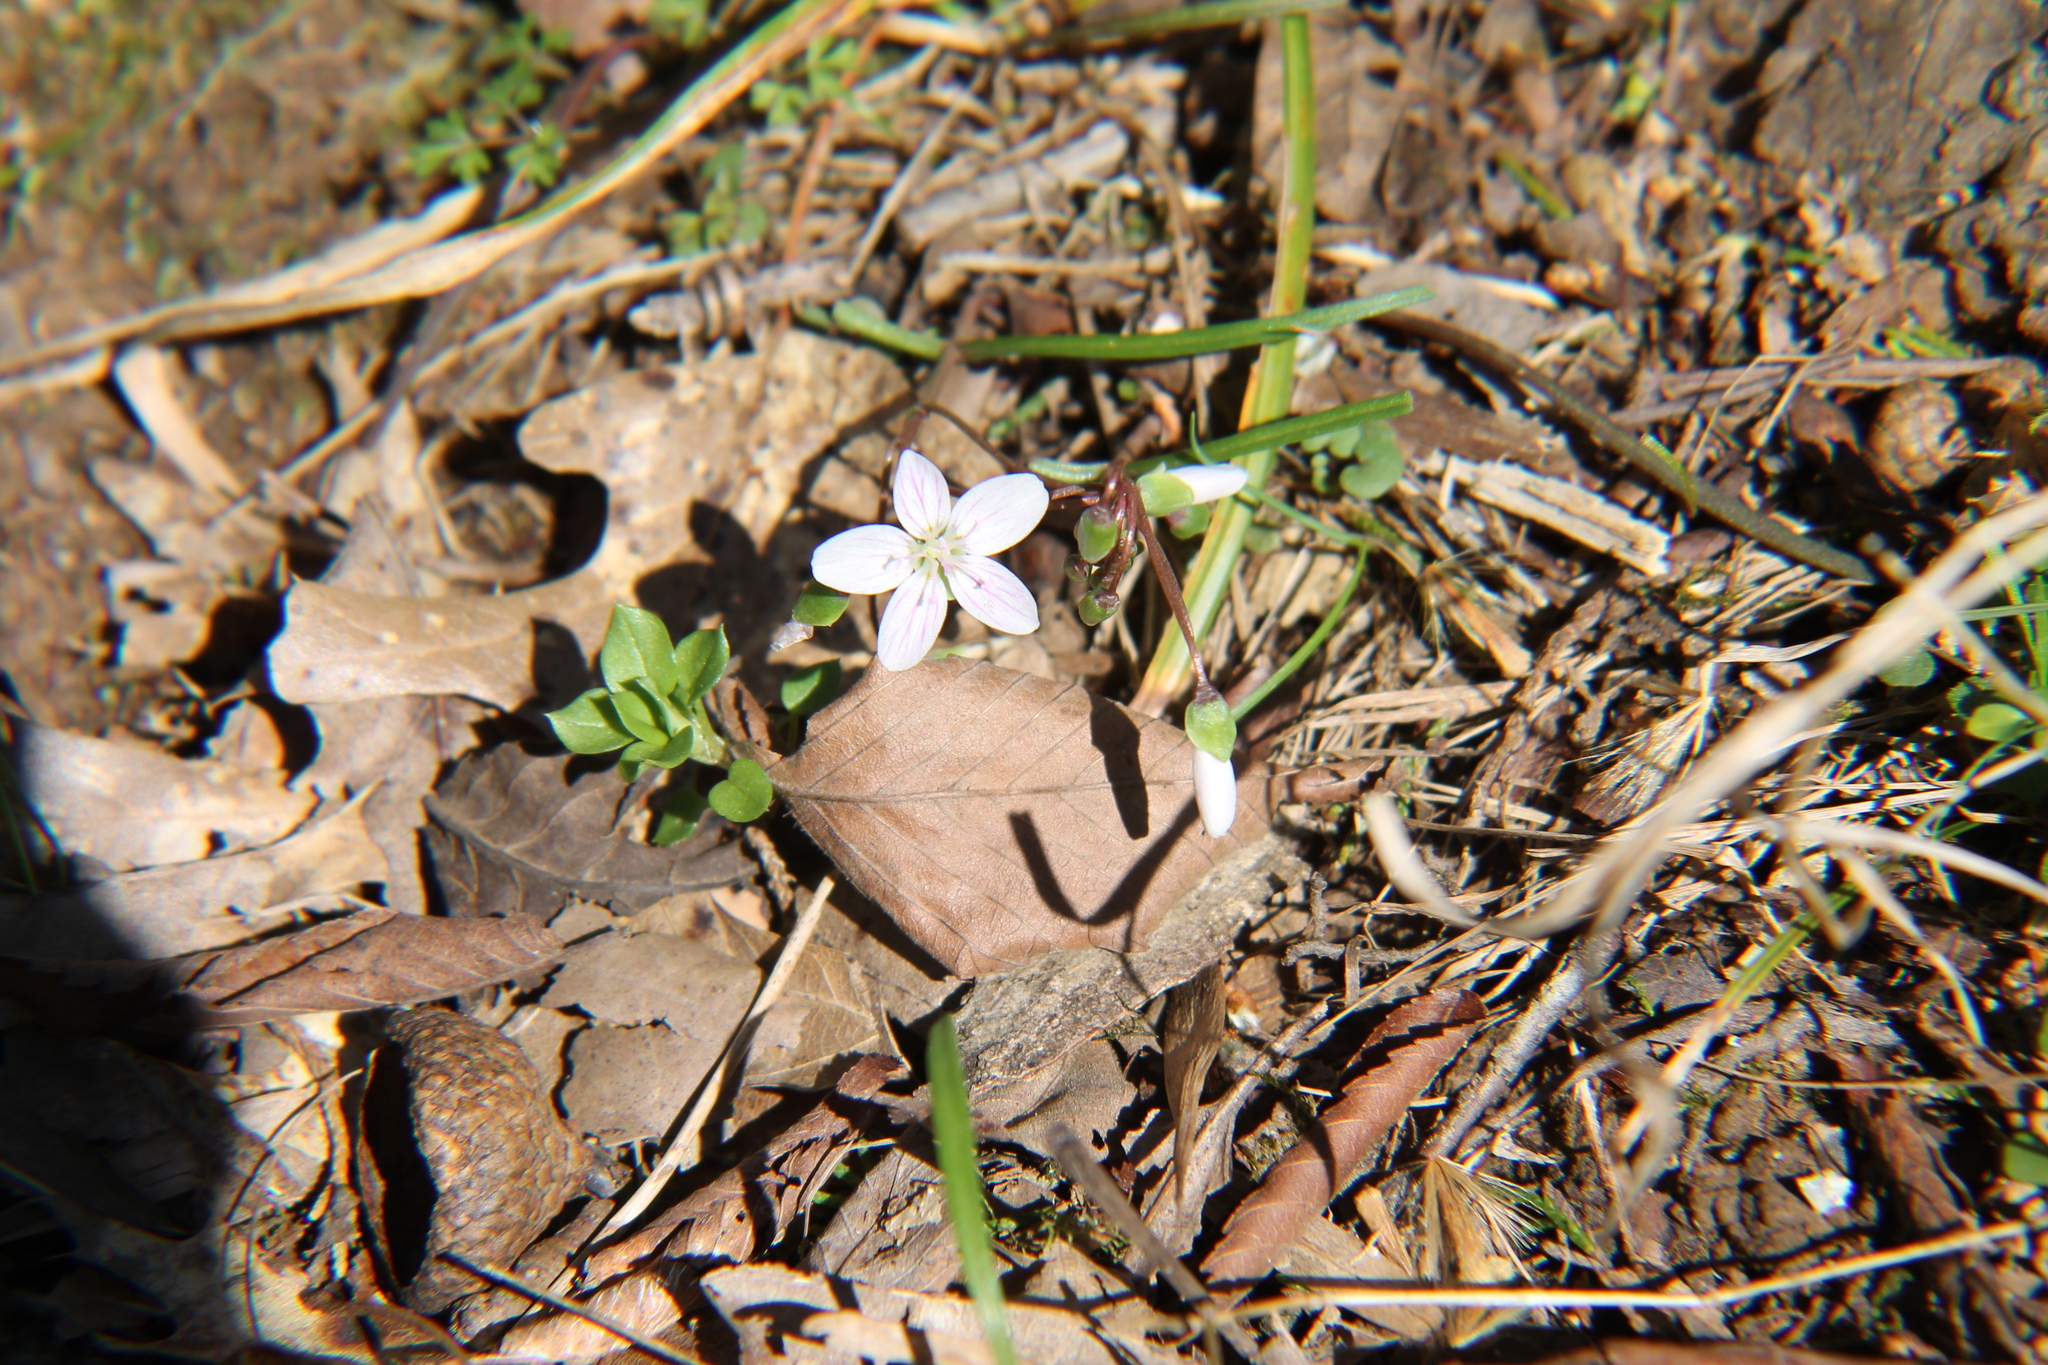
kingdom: Plantae
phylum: Tracheophyta
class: Magnoliopsida
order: Caryophyllales
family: Montiaceae
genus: Claytonia
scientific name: Claytonia virginica
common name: Virginia springbeauty
